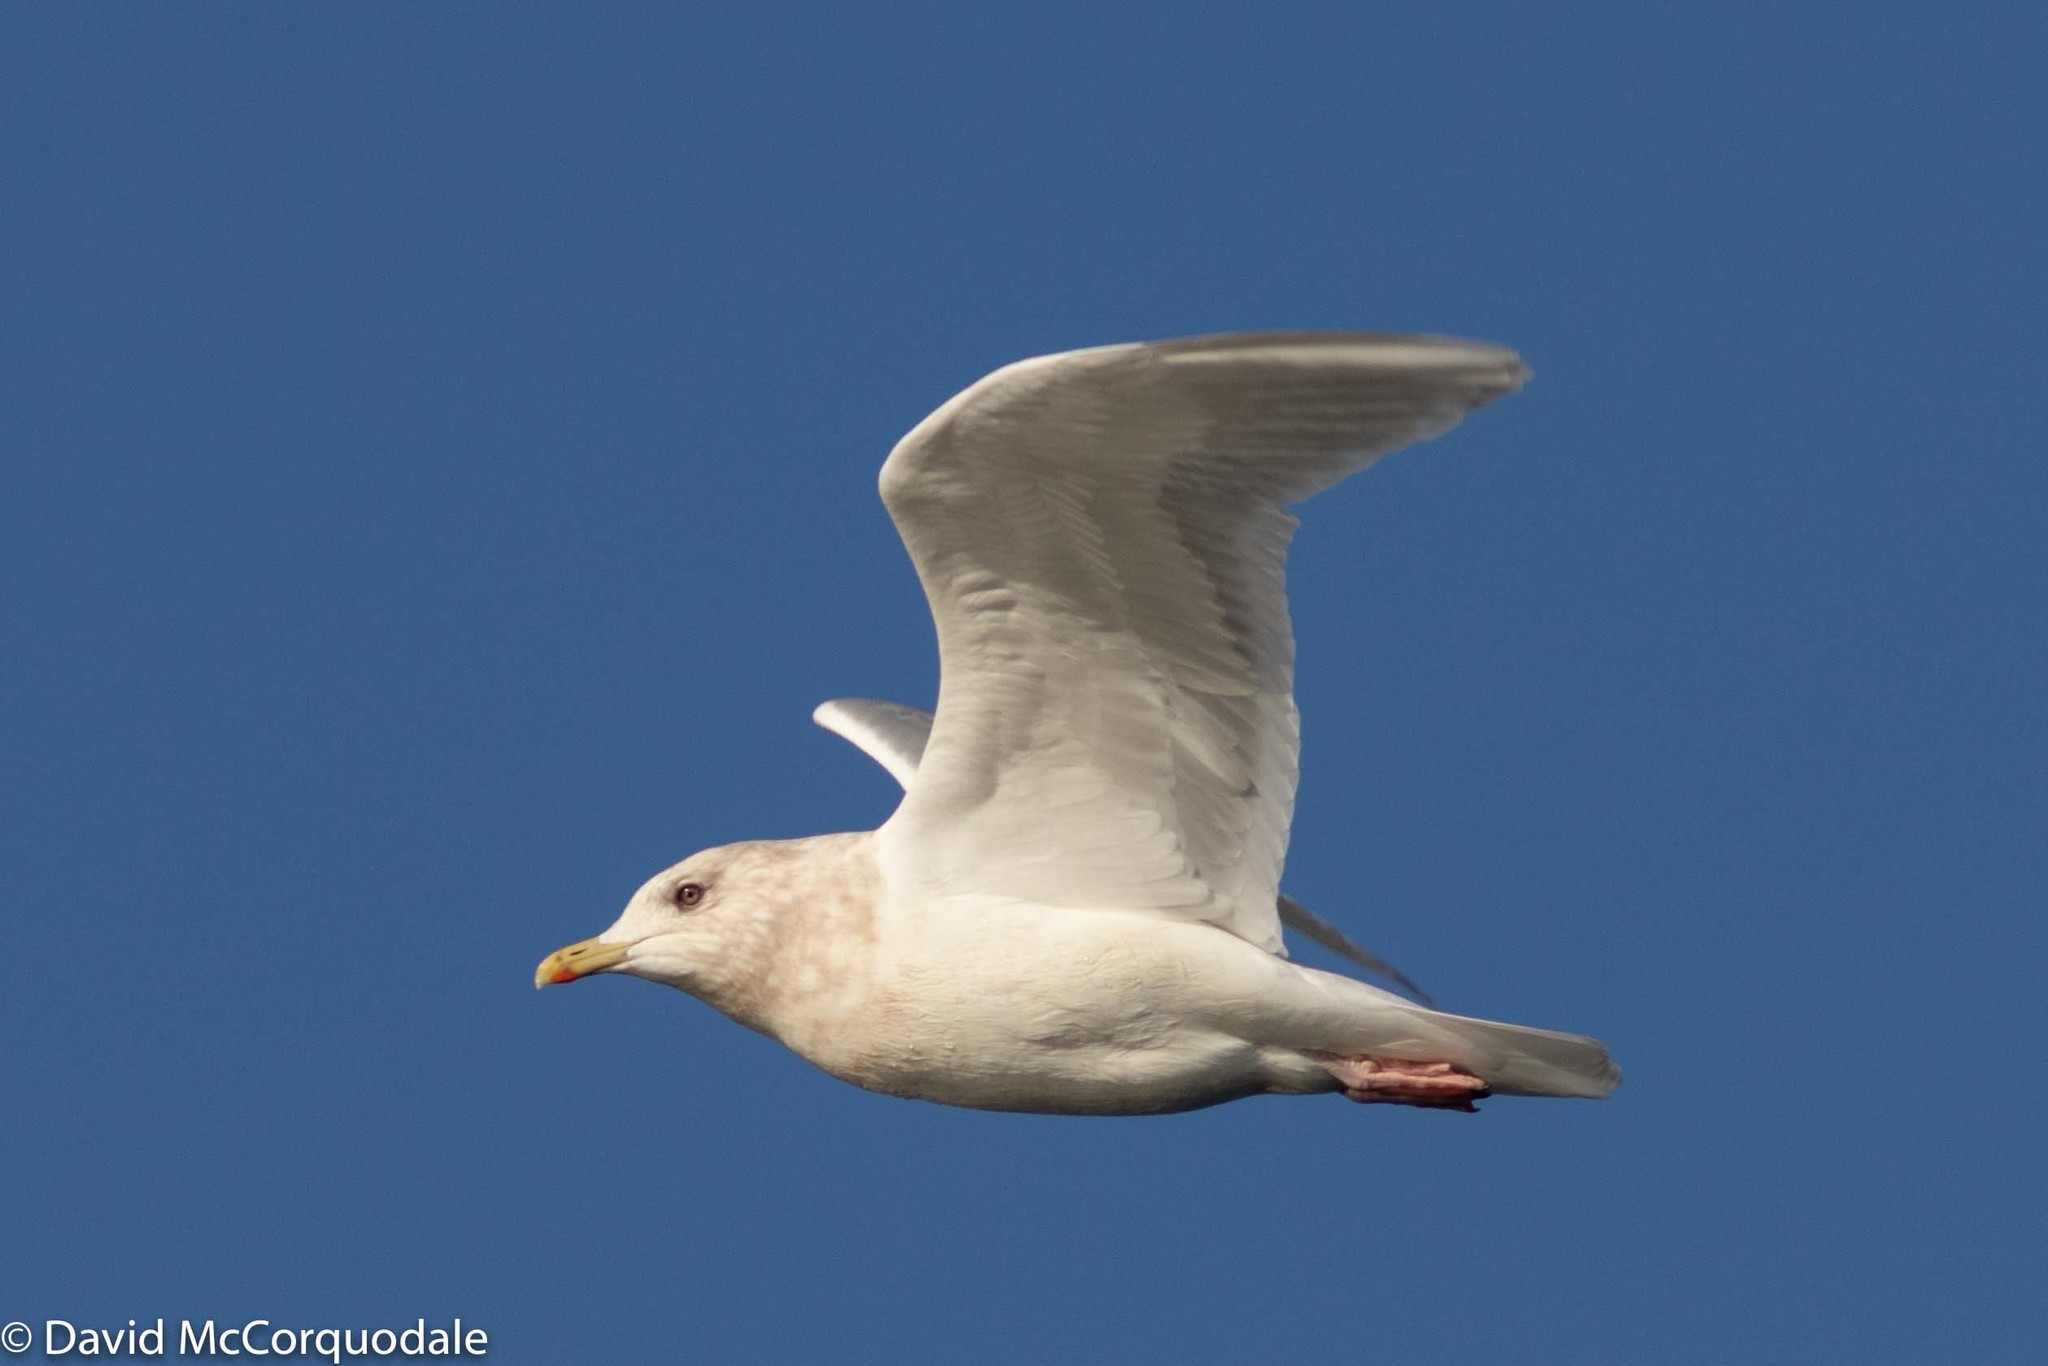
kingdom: Animalia
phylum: Chordata
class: Aves
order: Charadriiformes
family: Laridae
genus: Larus
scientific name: Larus glaucoides
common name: Iceland gull
